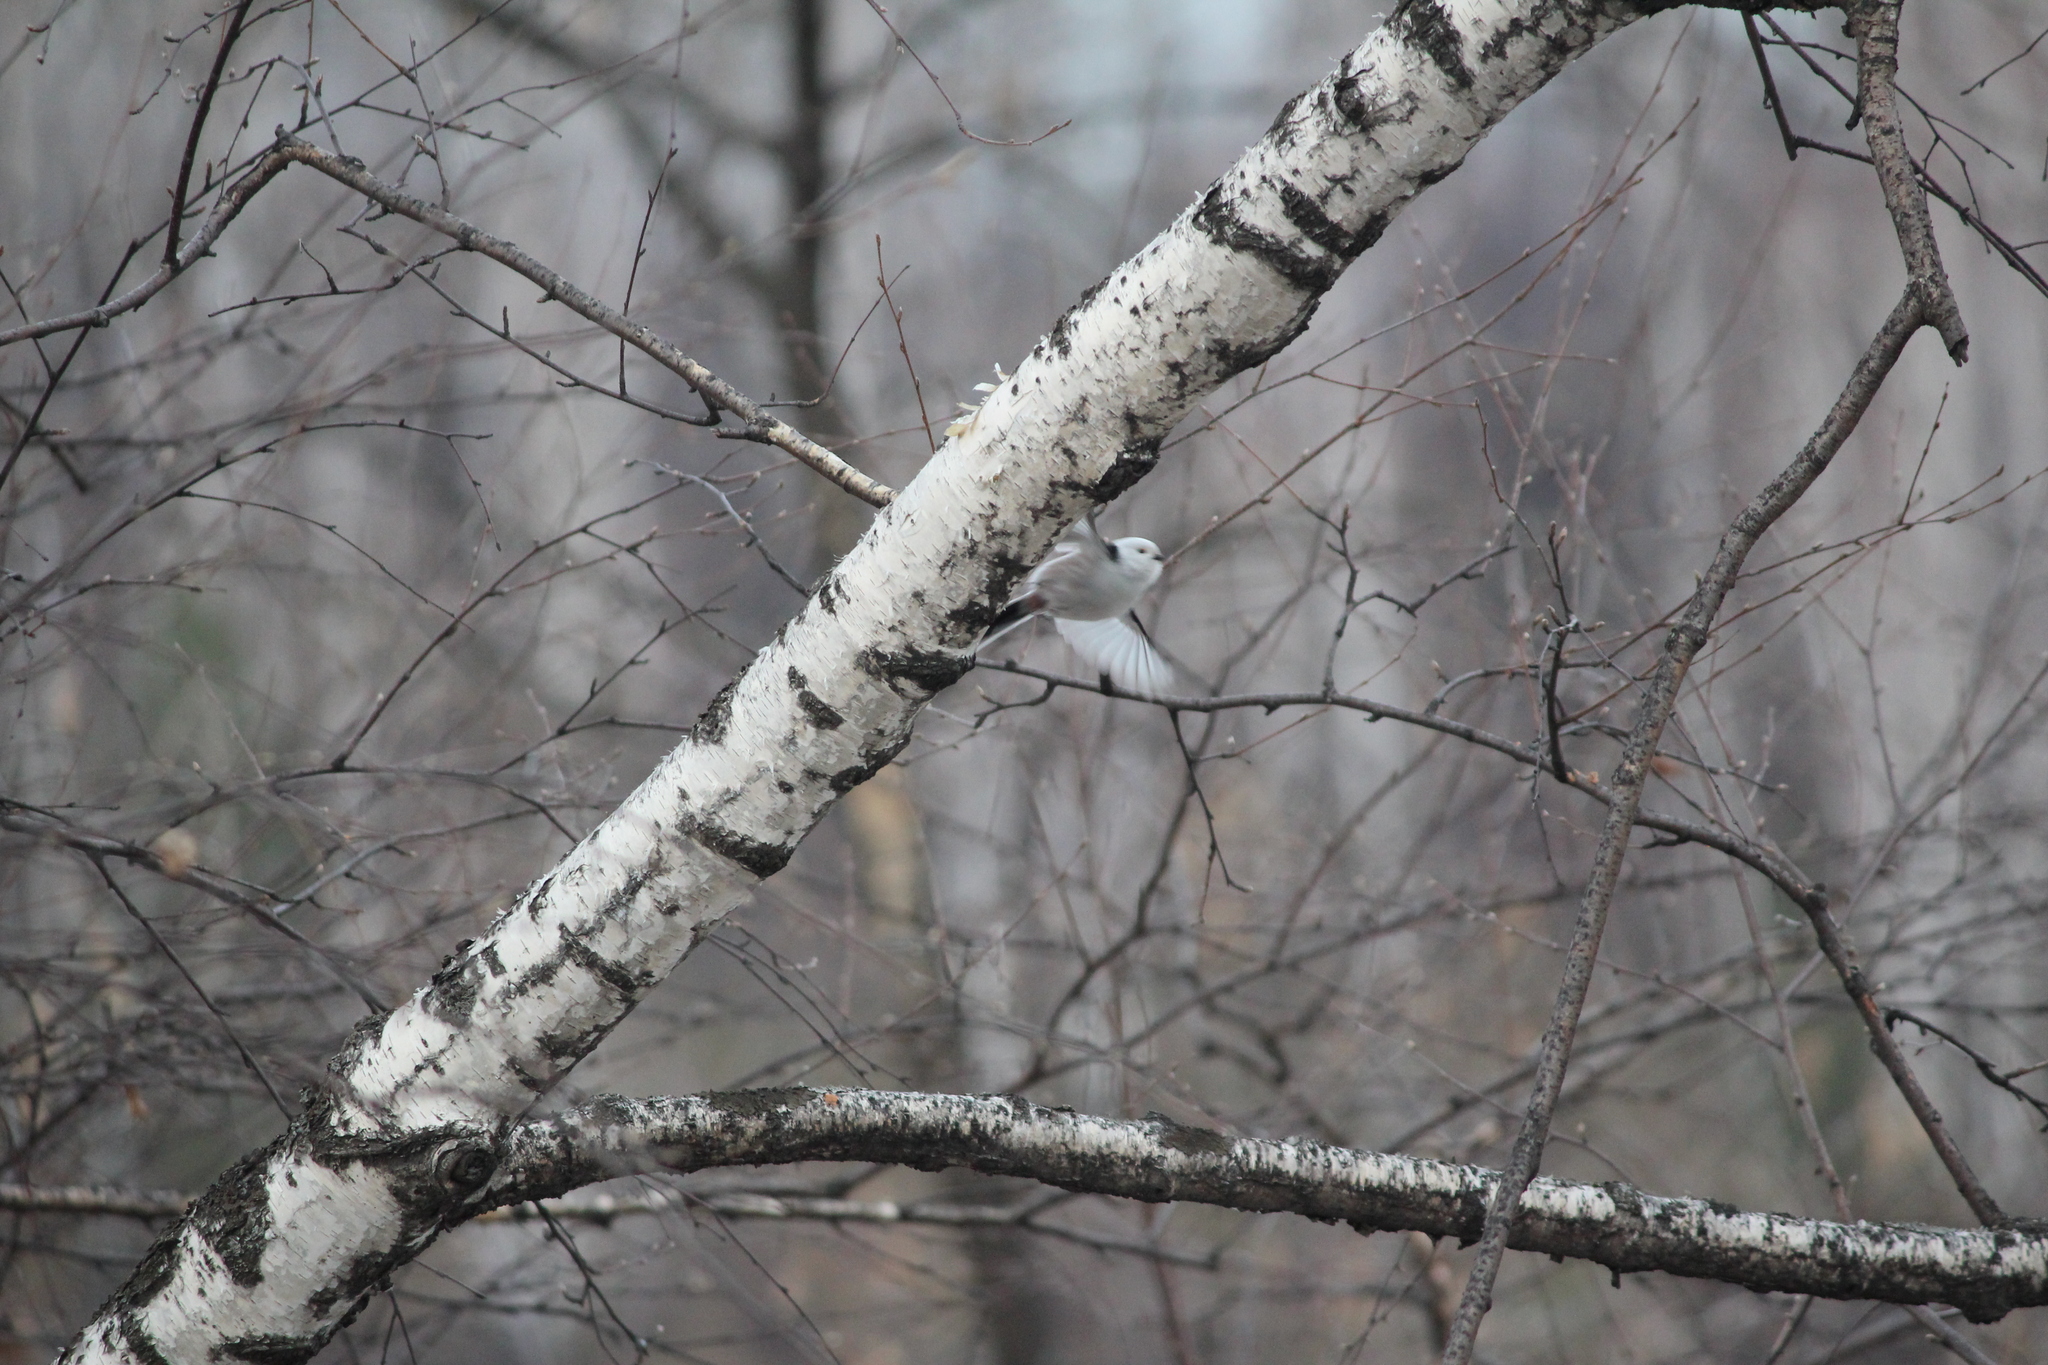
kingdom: Animalia
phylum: Chordata
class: Aves
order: Passeriformes
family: Aegithalidae
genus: Aegithalos
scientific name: Aegithalos caudatus
